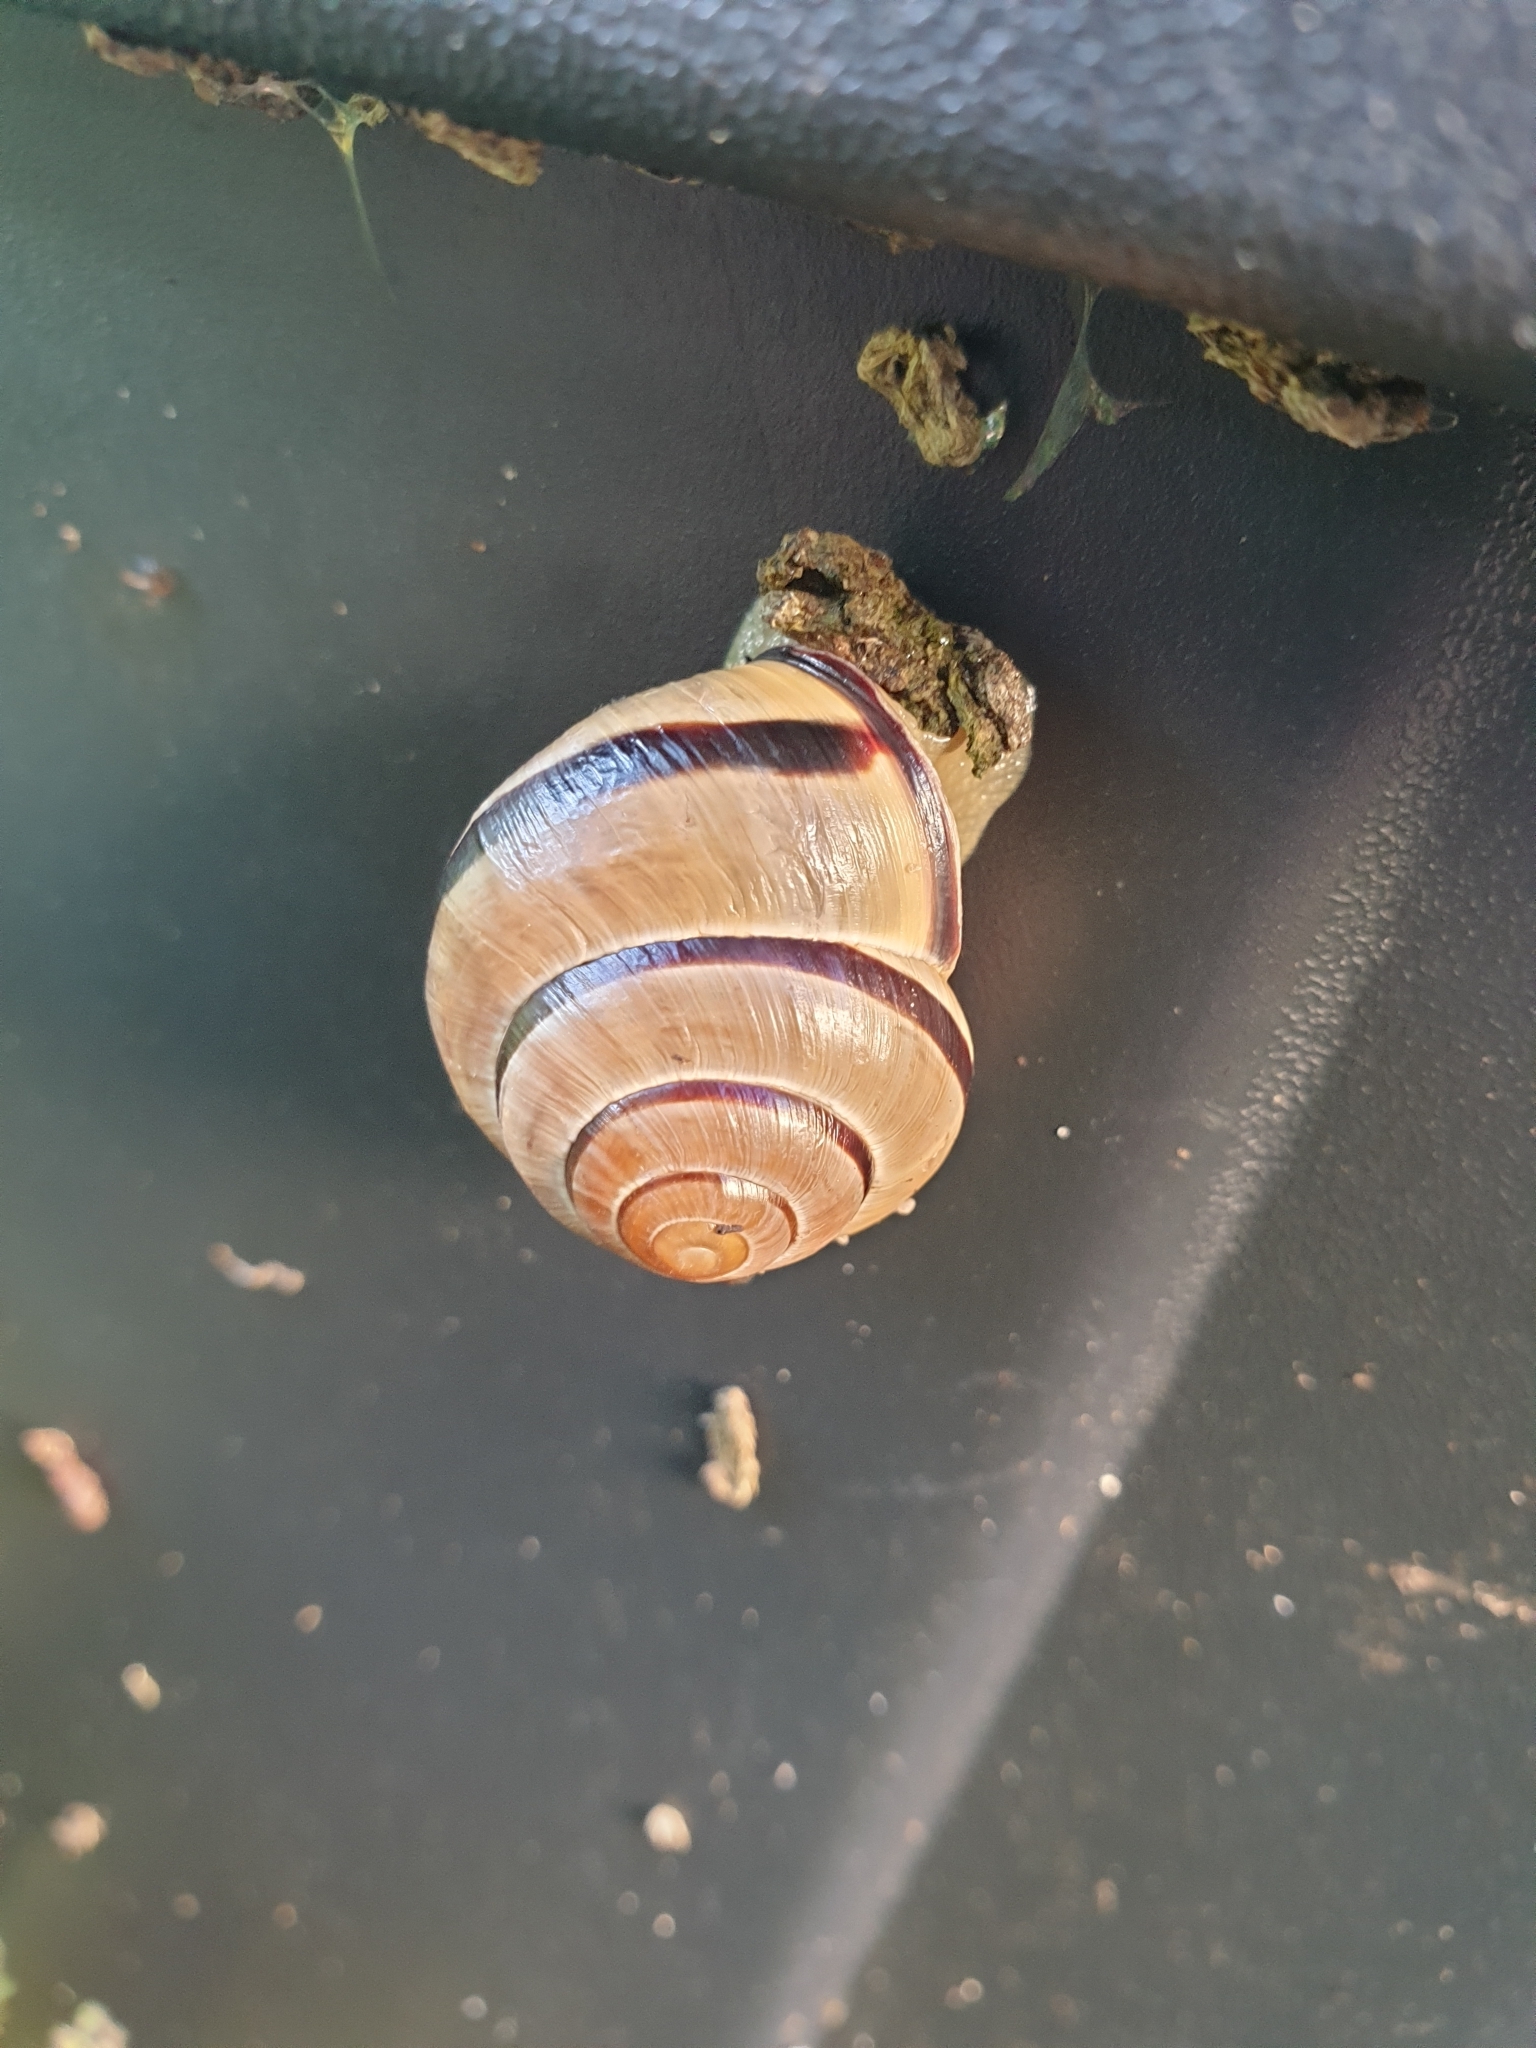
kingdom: Animalia
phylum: Mollusca
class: Gastropoda
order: Stylommatophora
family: Helicidae
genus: Cepaea
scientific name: Cepaea nemoralis
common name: Grovesnail
